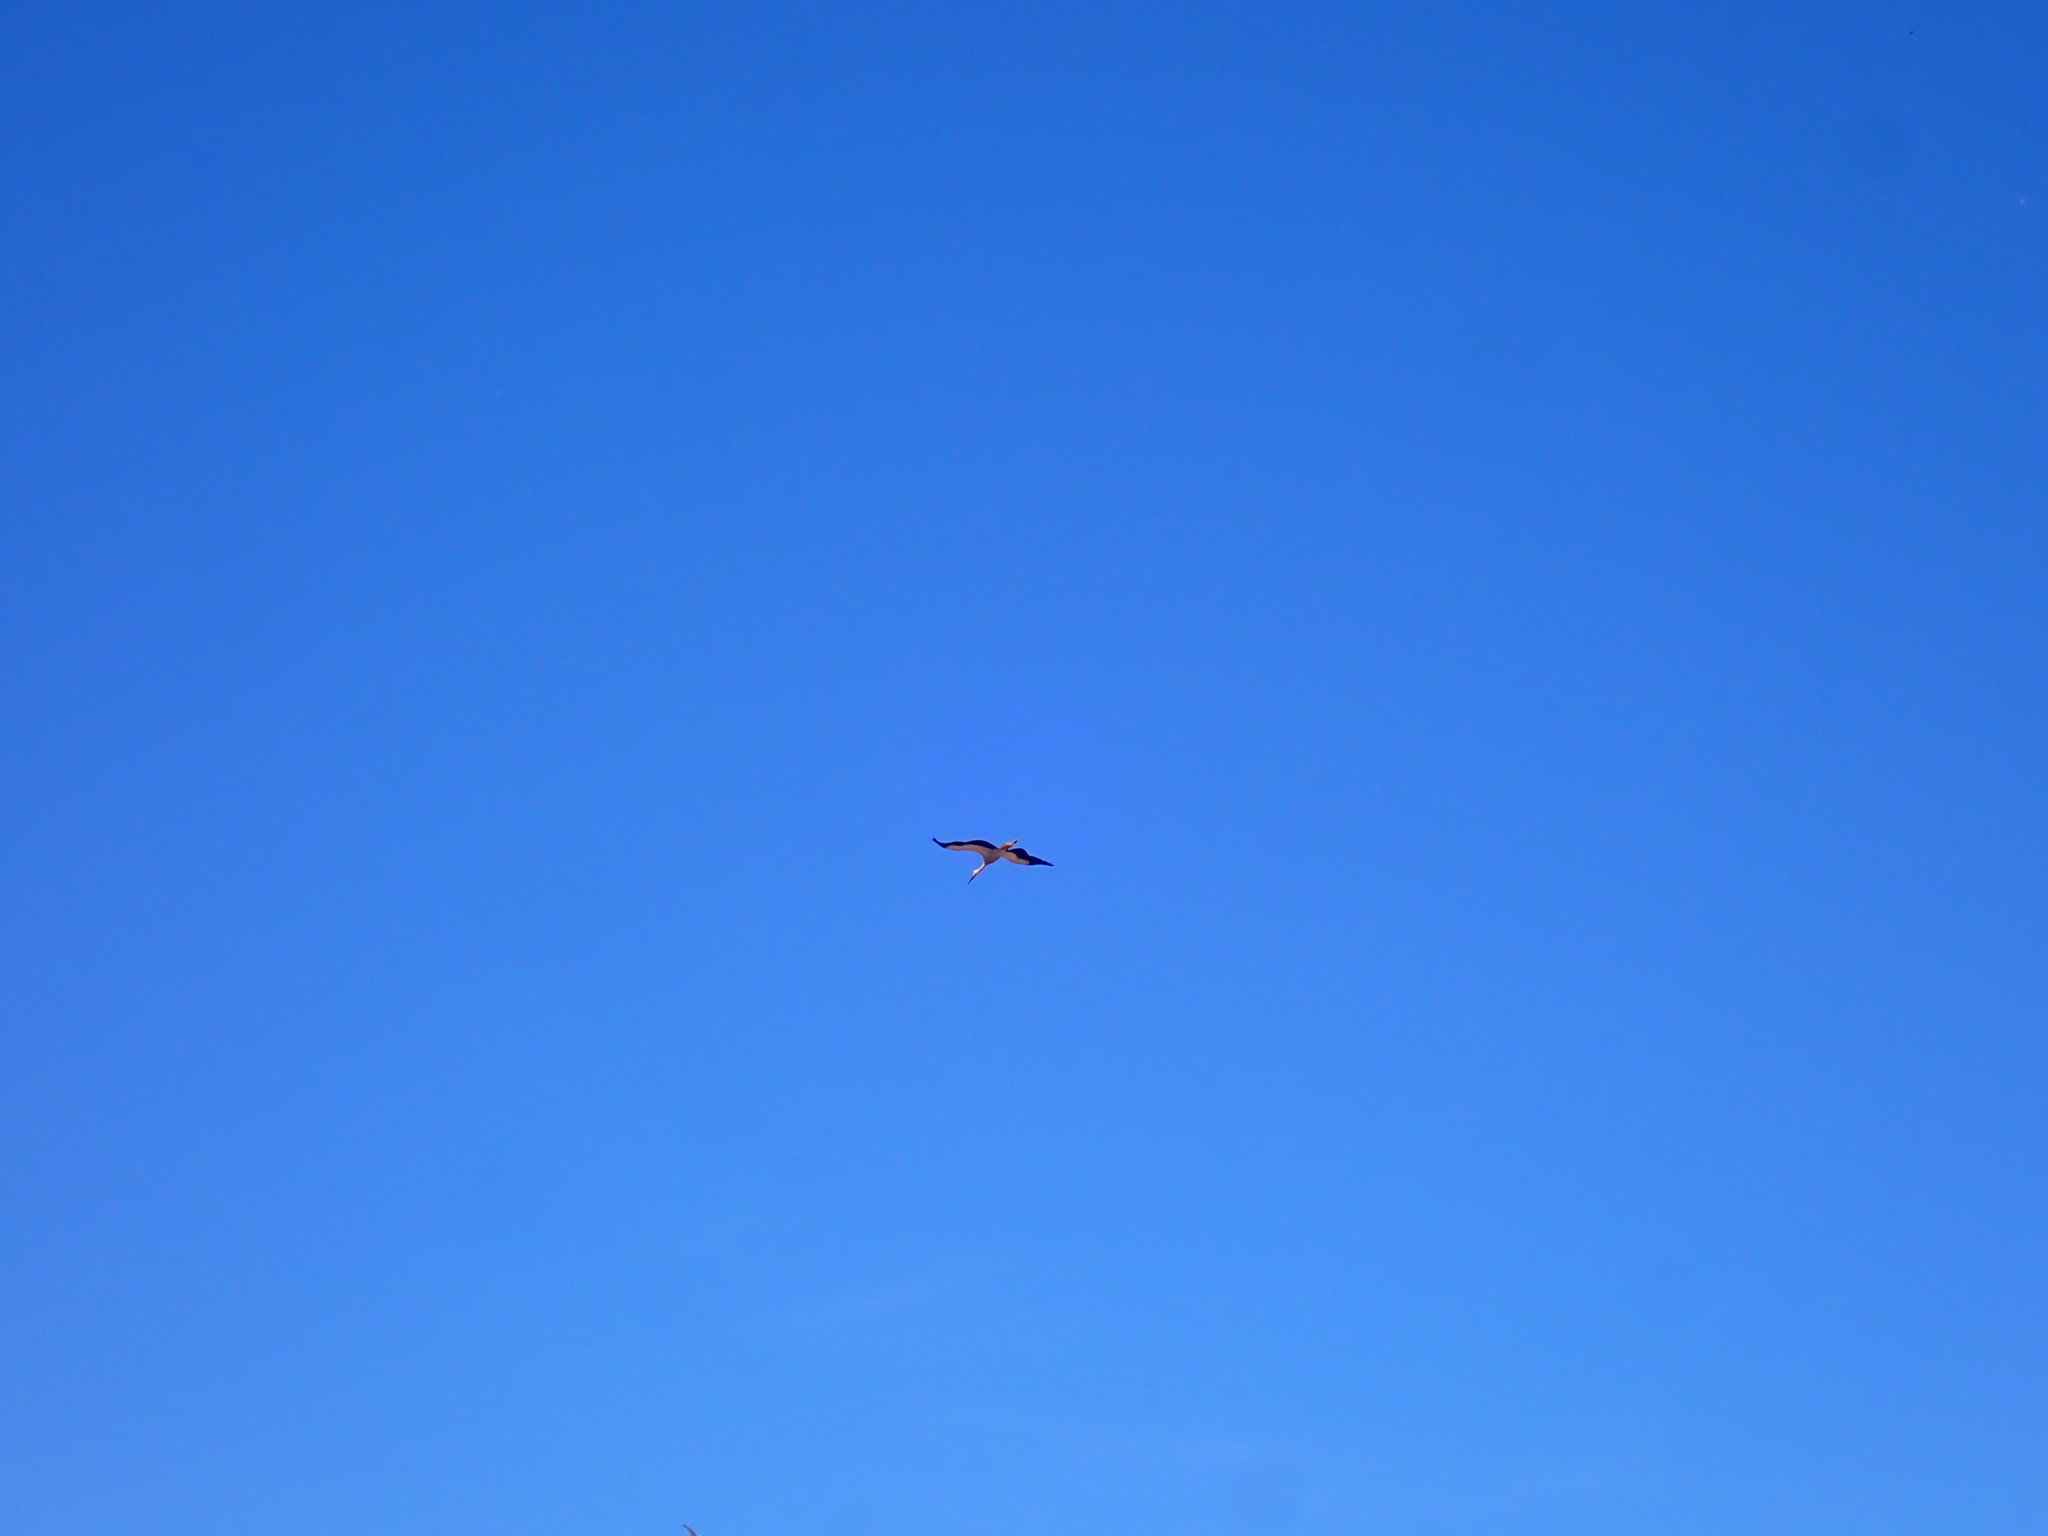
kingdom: Animalia
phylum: Chordata
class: Aves
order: Ciconiiformes
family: Ciconiidae
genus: Ciconia
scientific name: Ciconia ciconia
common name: White stork
